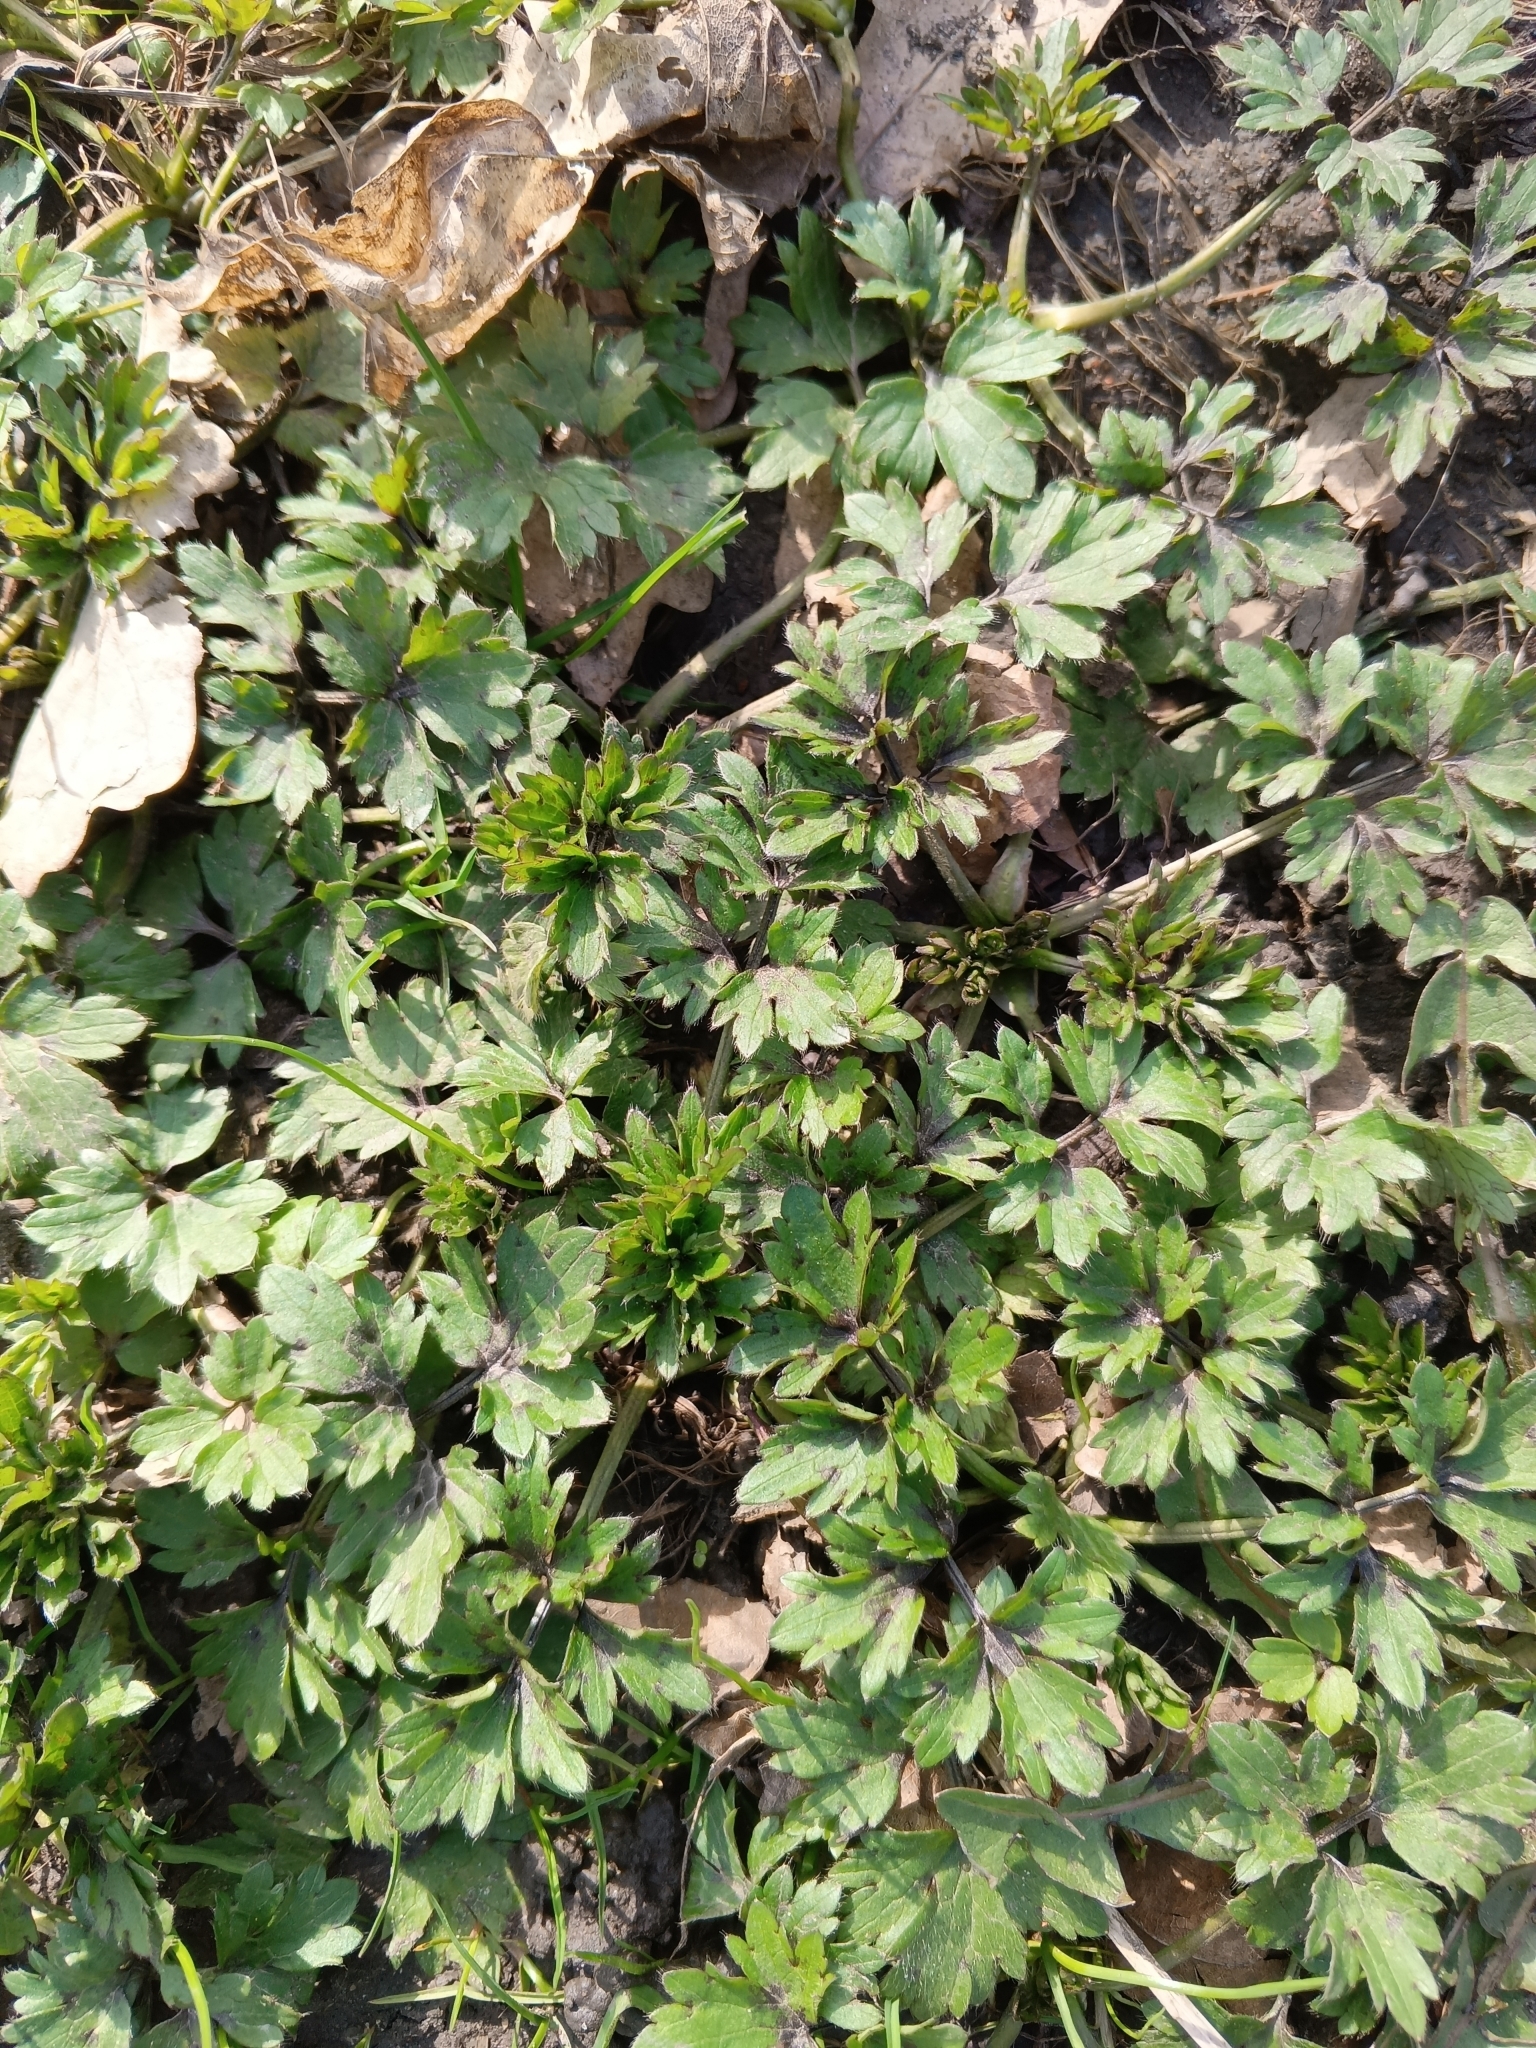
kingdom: Plantae
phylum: Tracheophyta
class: Magnoliopsida
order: Ranunculales
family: Ranunculaceae
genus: Ranunculus
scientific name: Ranunculus repens
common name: Creeping buttercup
